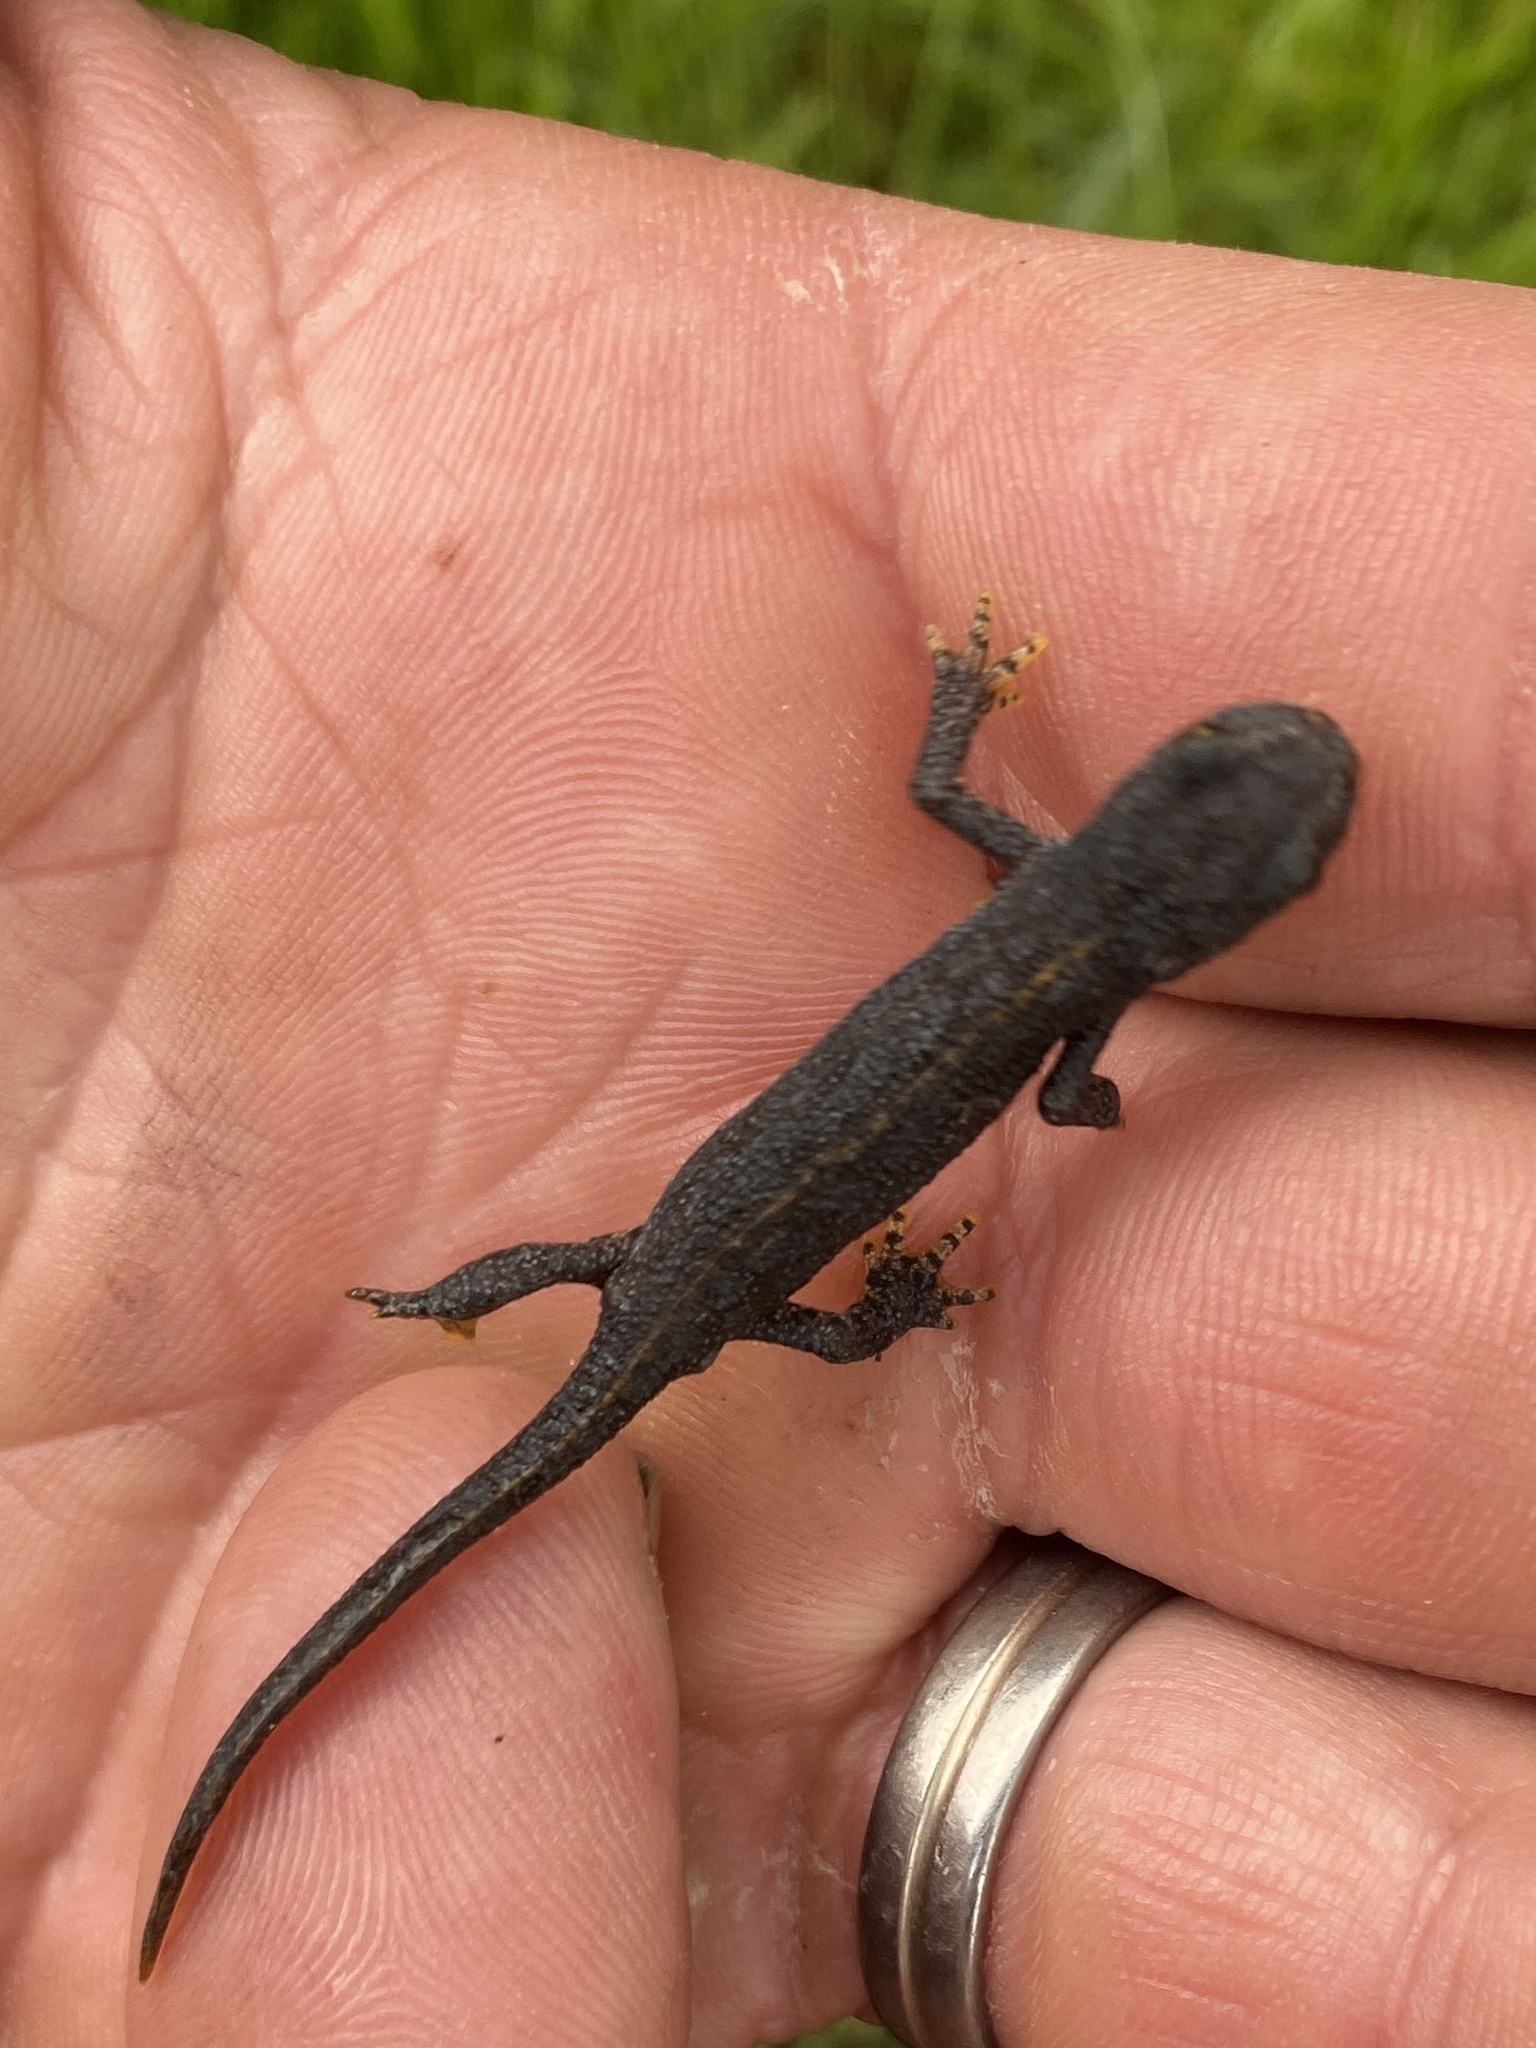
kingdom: Animalia
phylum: Chordata
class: Amphibia
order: Caudata
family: Salamandridae
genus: Ichthyosaura
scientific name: Ichthyosaura alpestris
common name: Alpine newt
